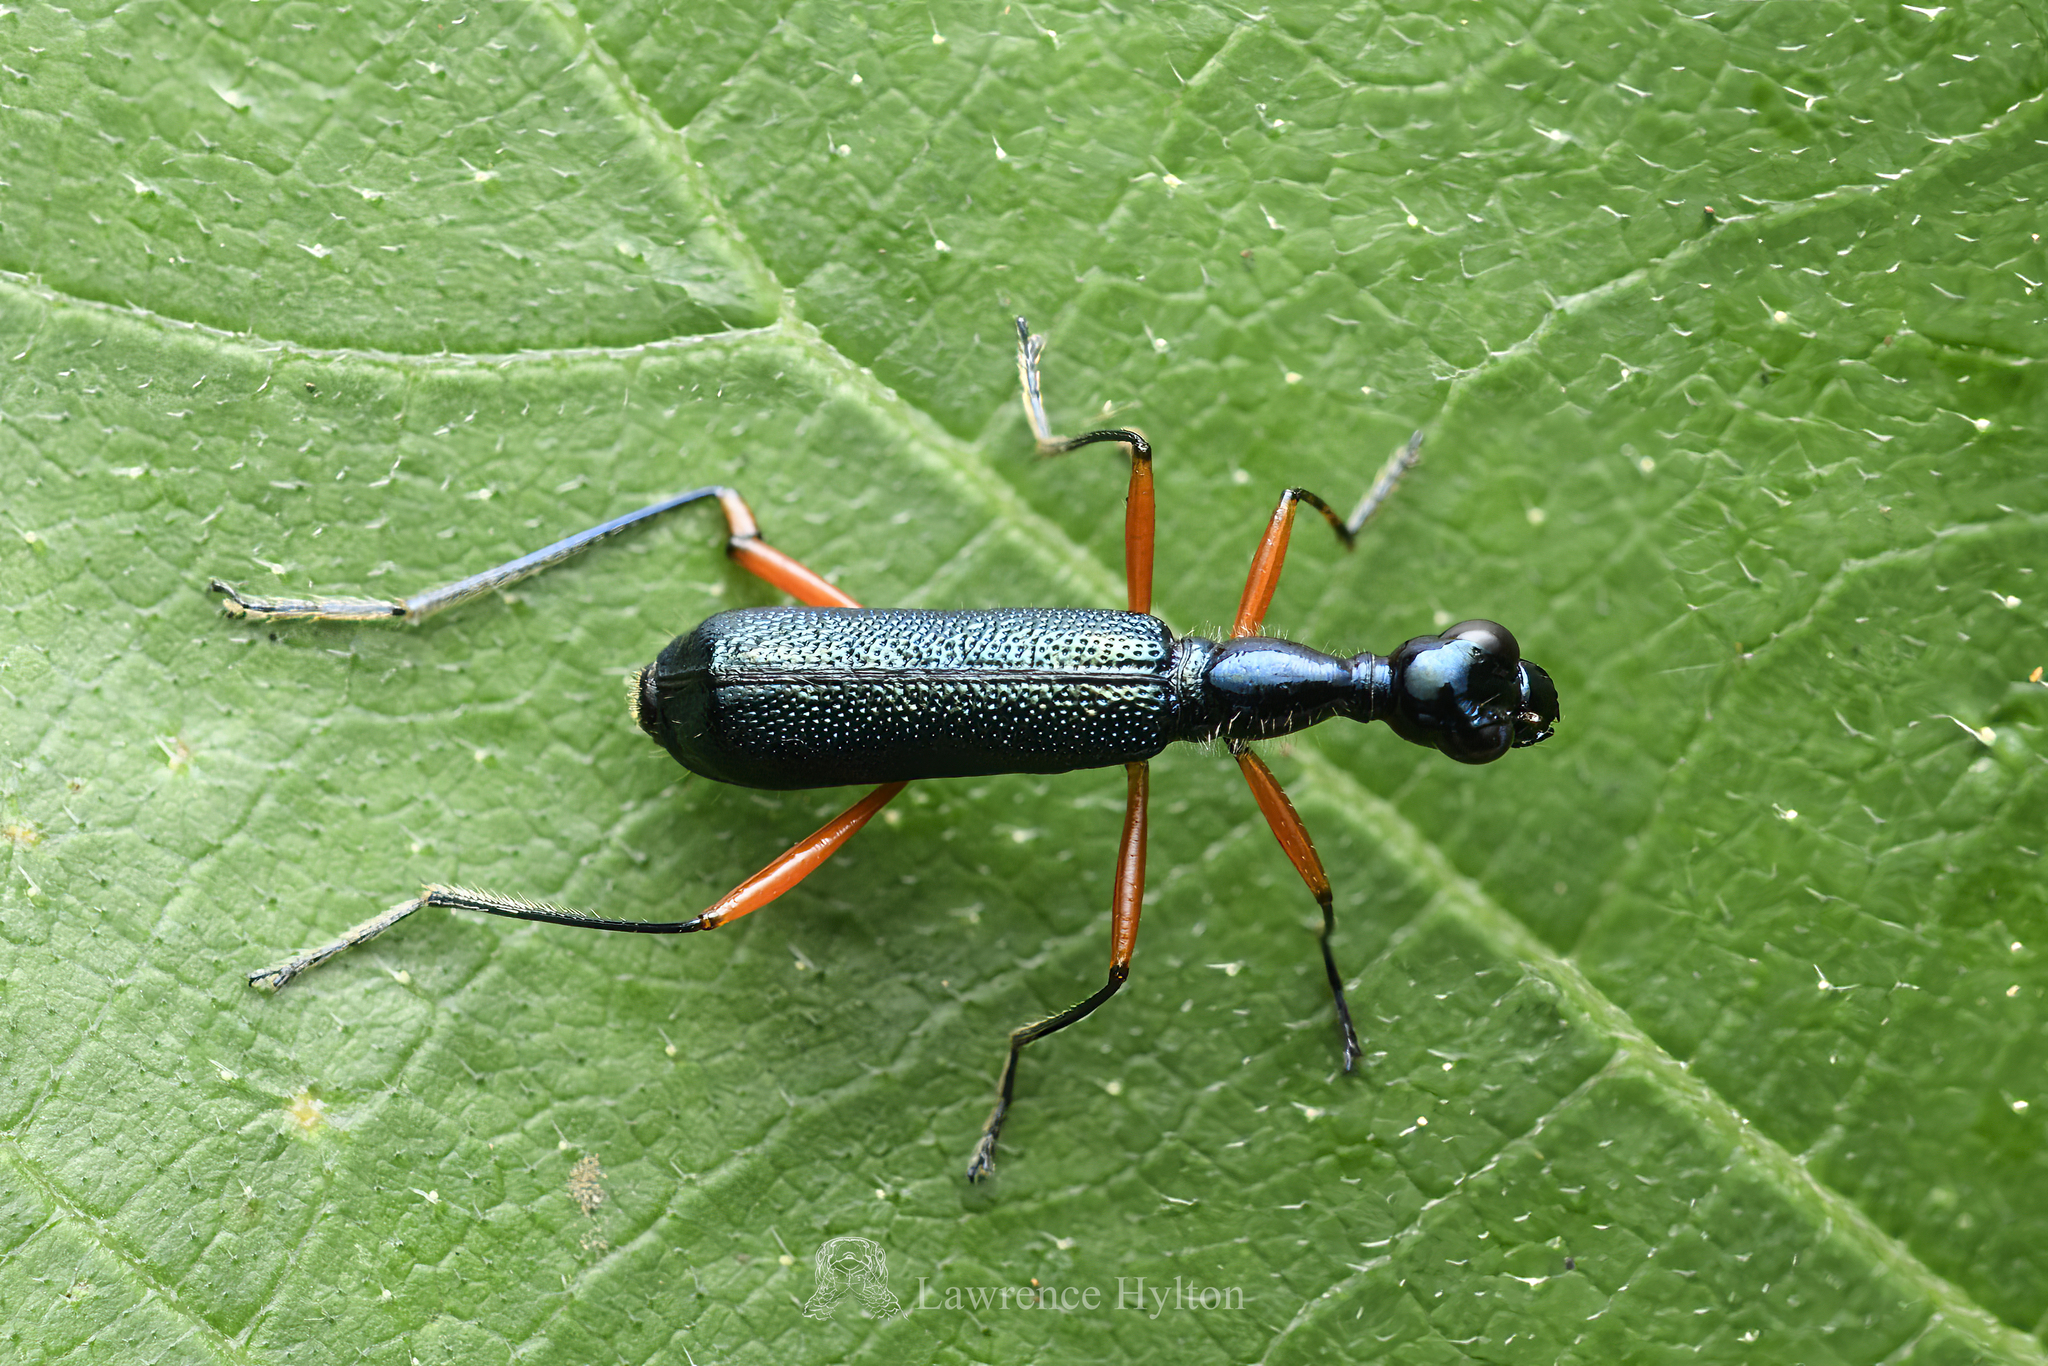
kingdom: Animalia
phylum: Arthropoda
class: Insecta
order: Coleoptera
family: Carabidae
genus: Neocollyris
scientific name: Neocollyris bonellii
